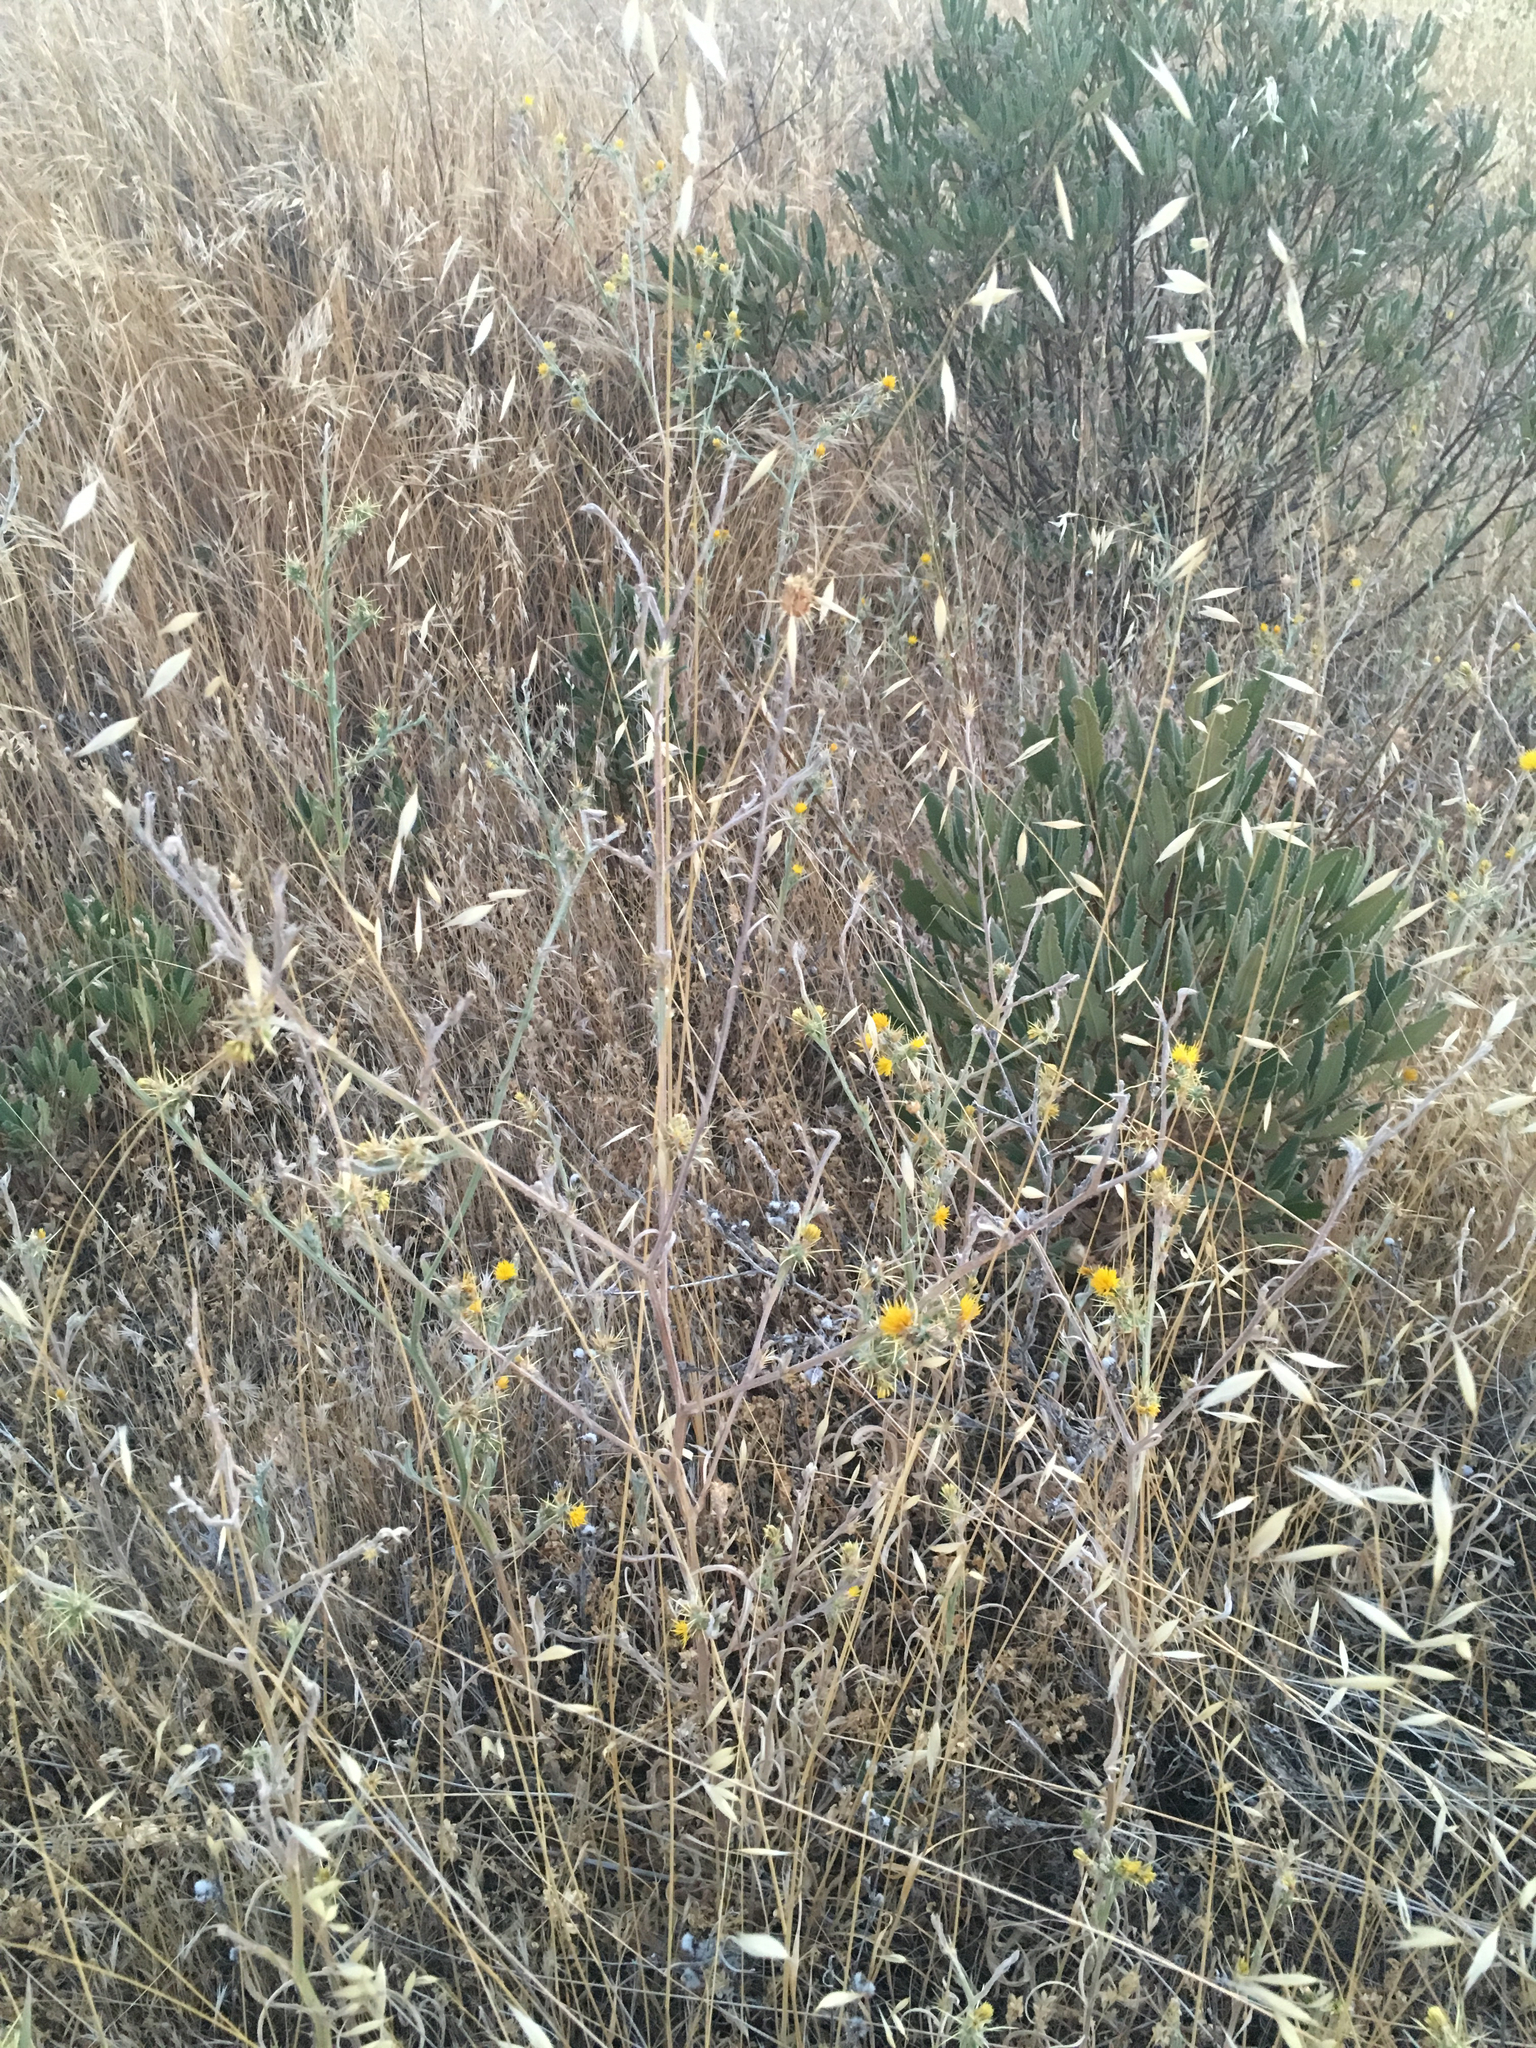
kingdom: Plantae
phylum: Tracheophyta
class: Magnoliopsida
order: Asterales
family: Asteraceae
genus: Centaurea
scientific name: Centaurea solstitialis
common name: Yellow star-thistle
